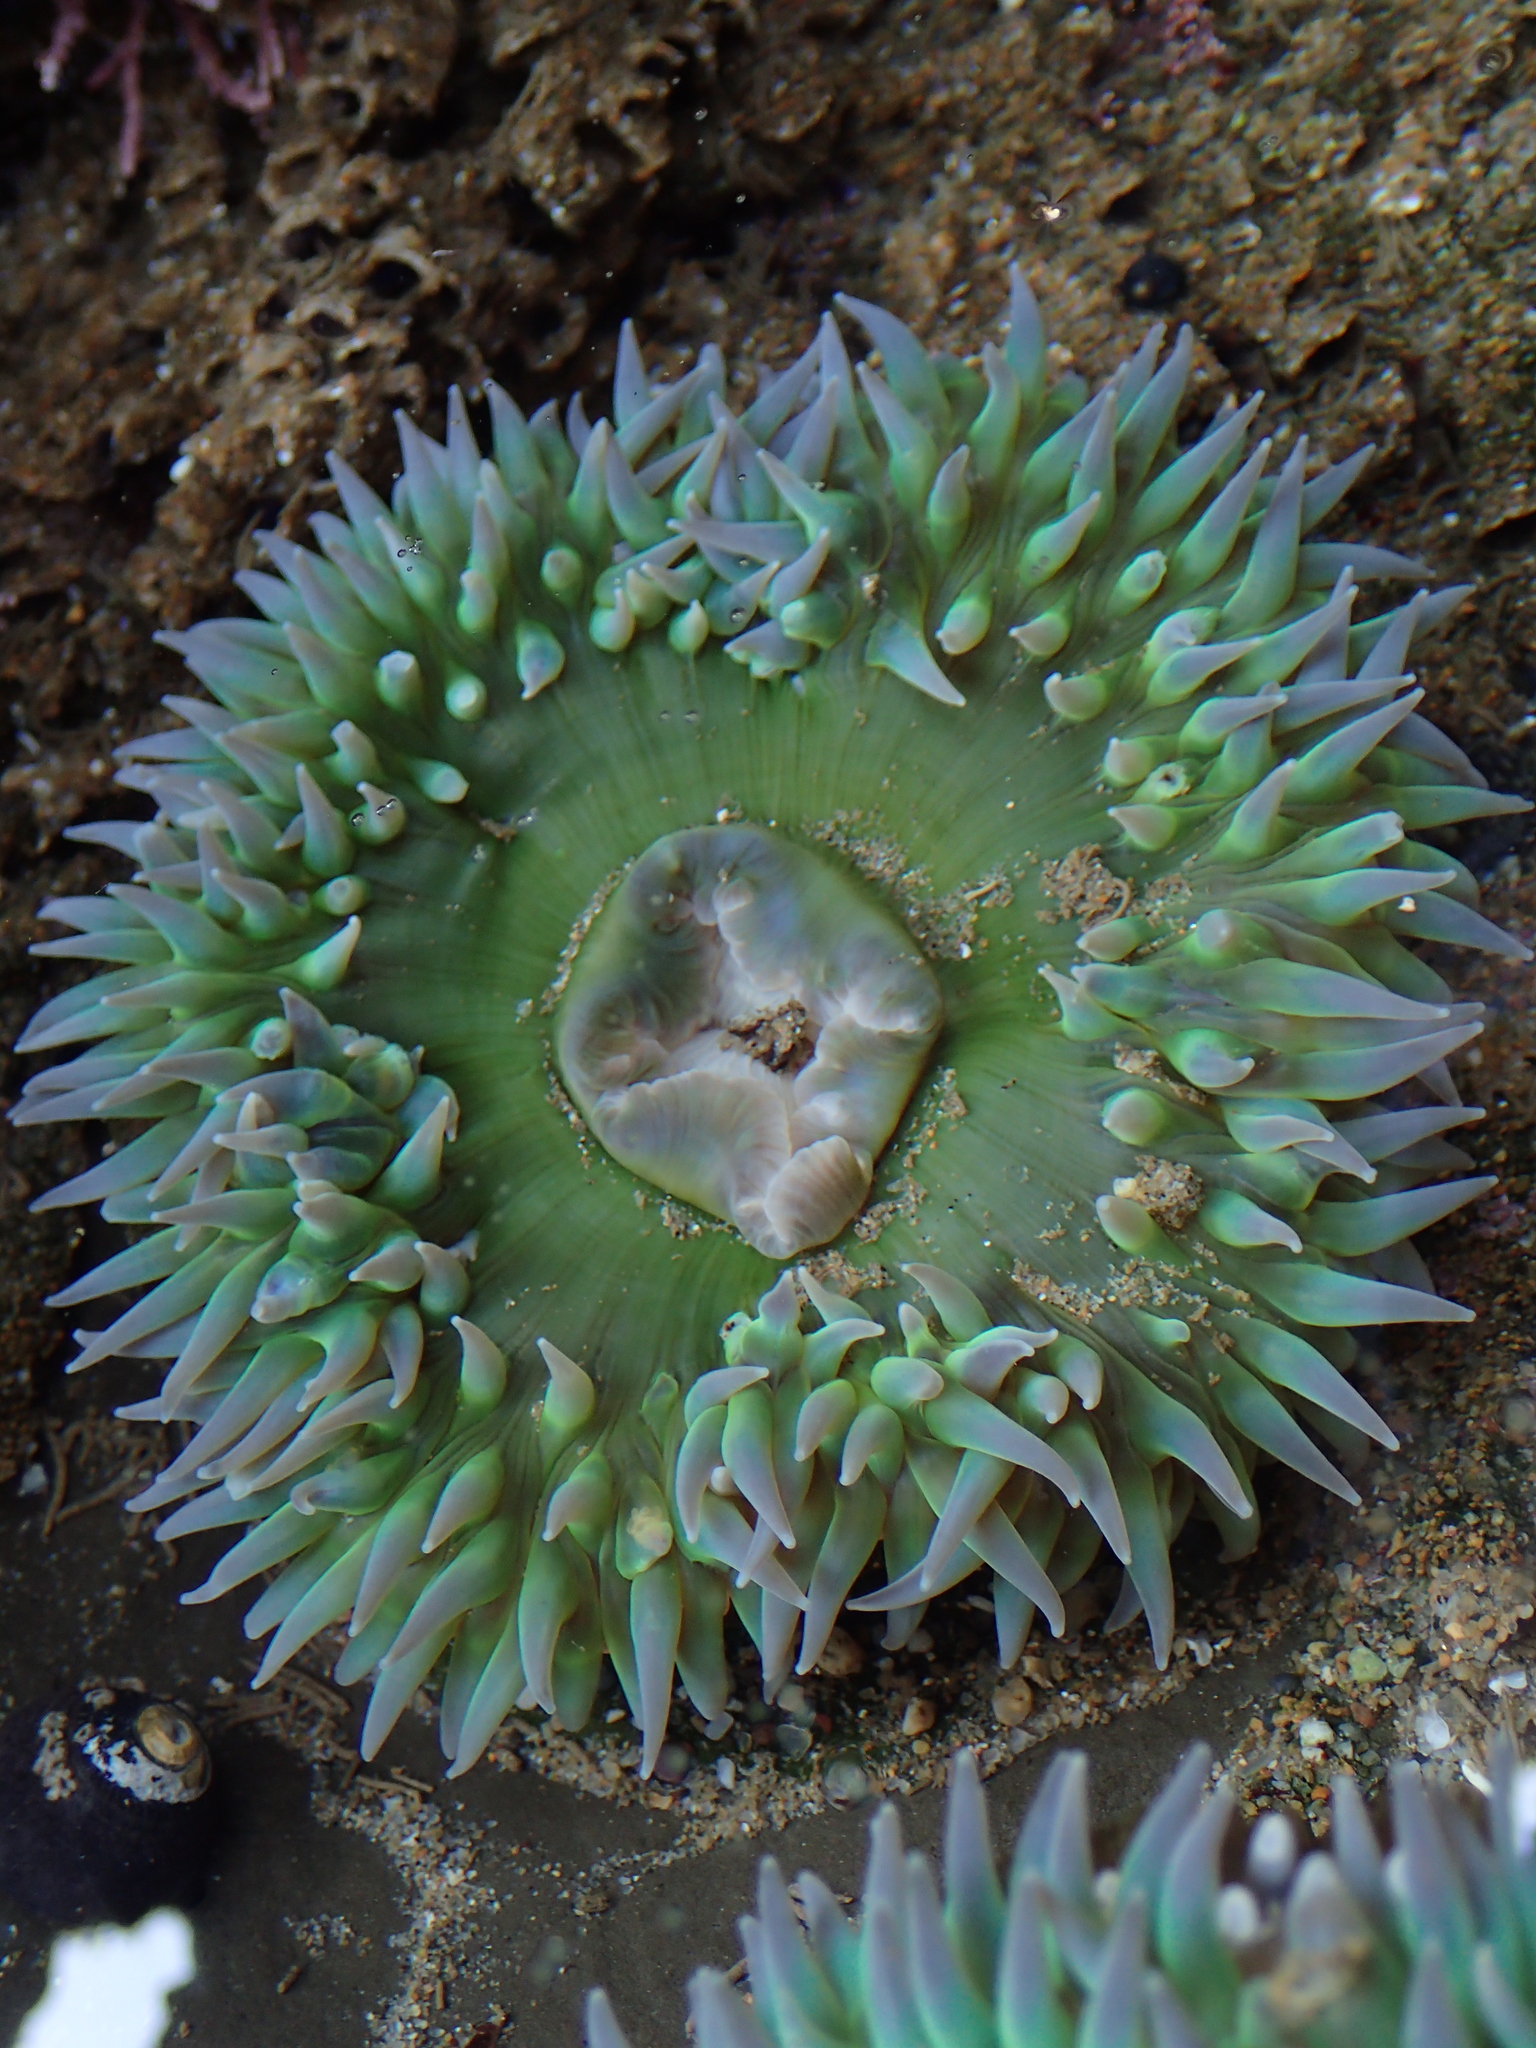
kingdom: Animalia
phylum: Cnidaria
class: Anthozoa
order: Actiniaria
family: Actiniidae
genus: Anthopleura
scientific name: Anthopleura xanthogrammica
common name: Giant green anemone
